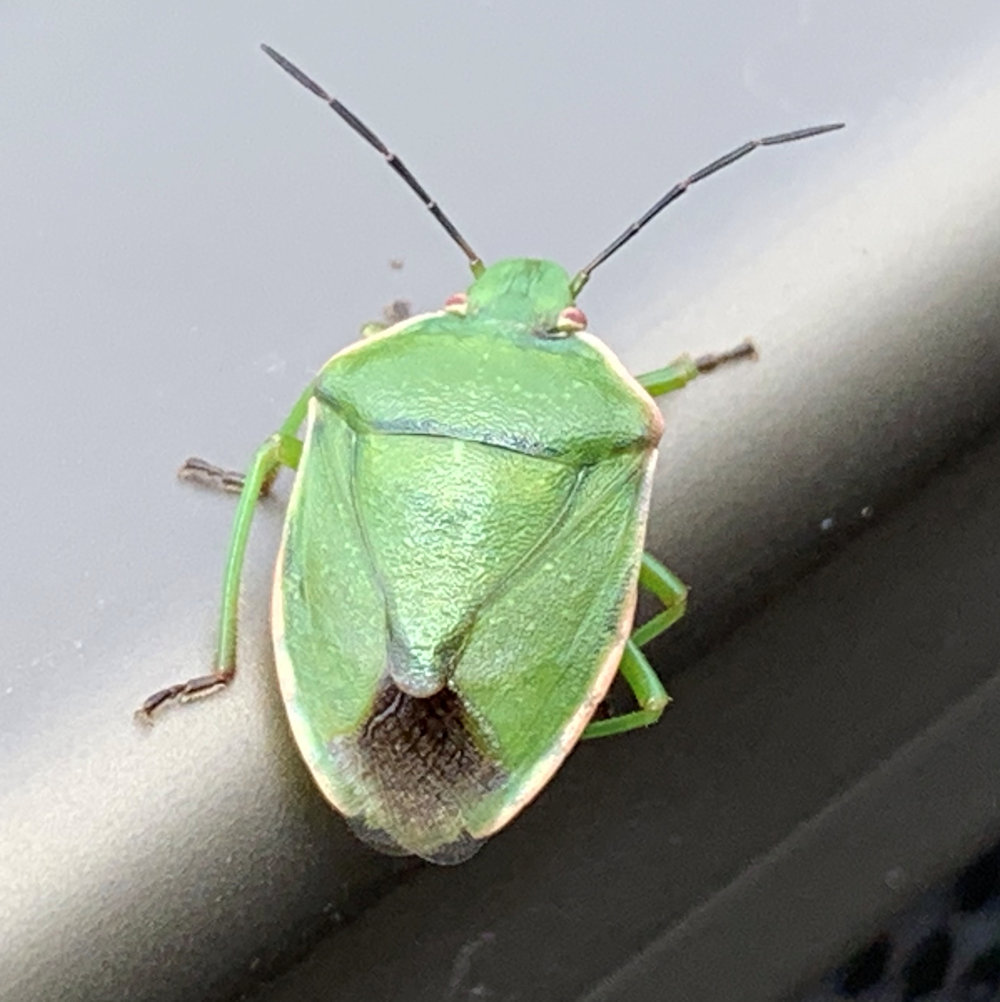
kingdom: Animalia
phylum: Arthropoda
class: Insecta
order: Hemiptera
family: Pentatomidae
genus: Chlorochroa
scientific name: Chlorochroa persimilis
